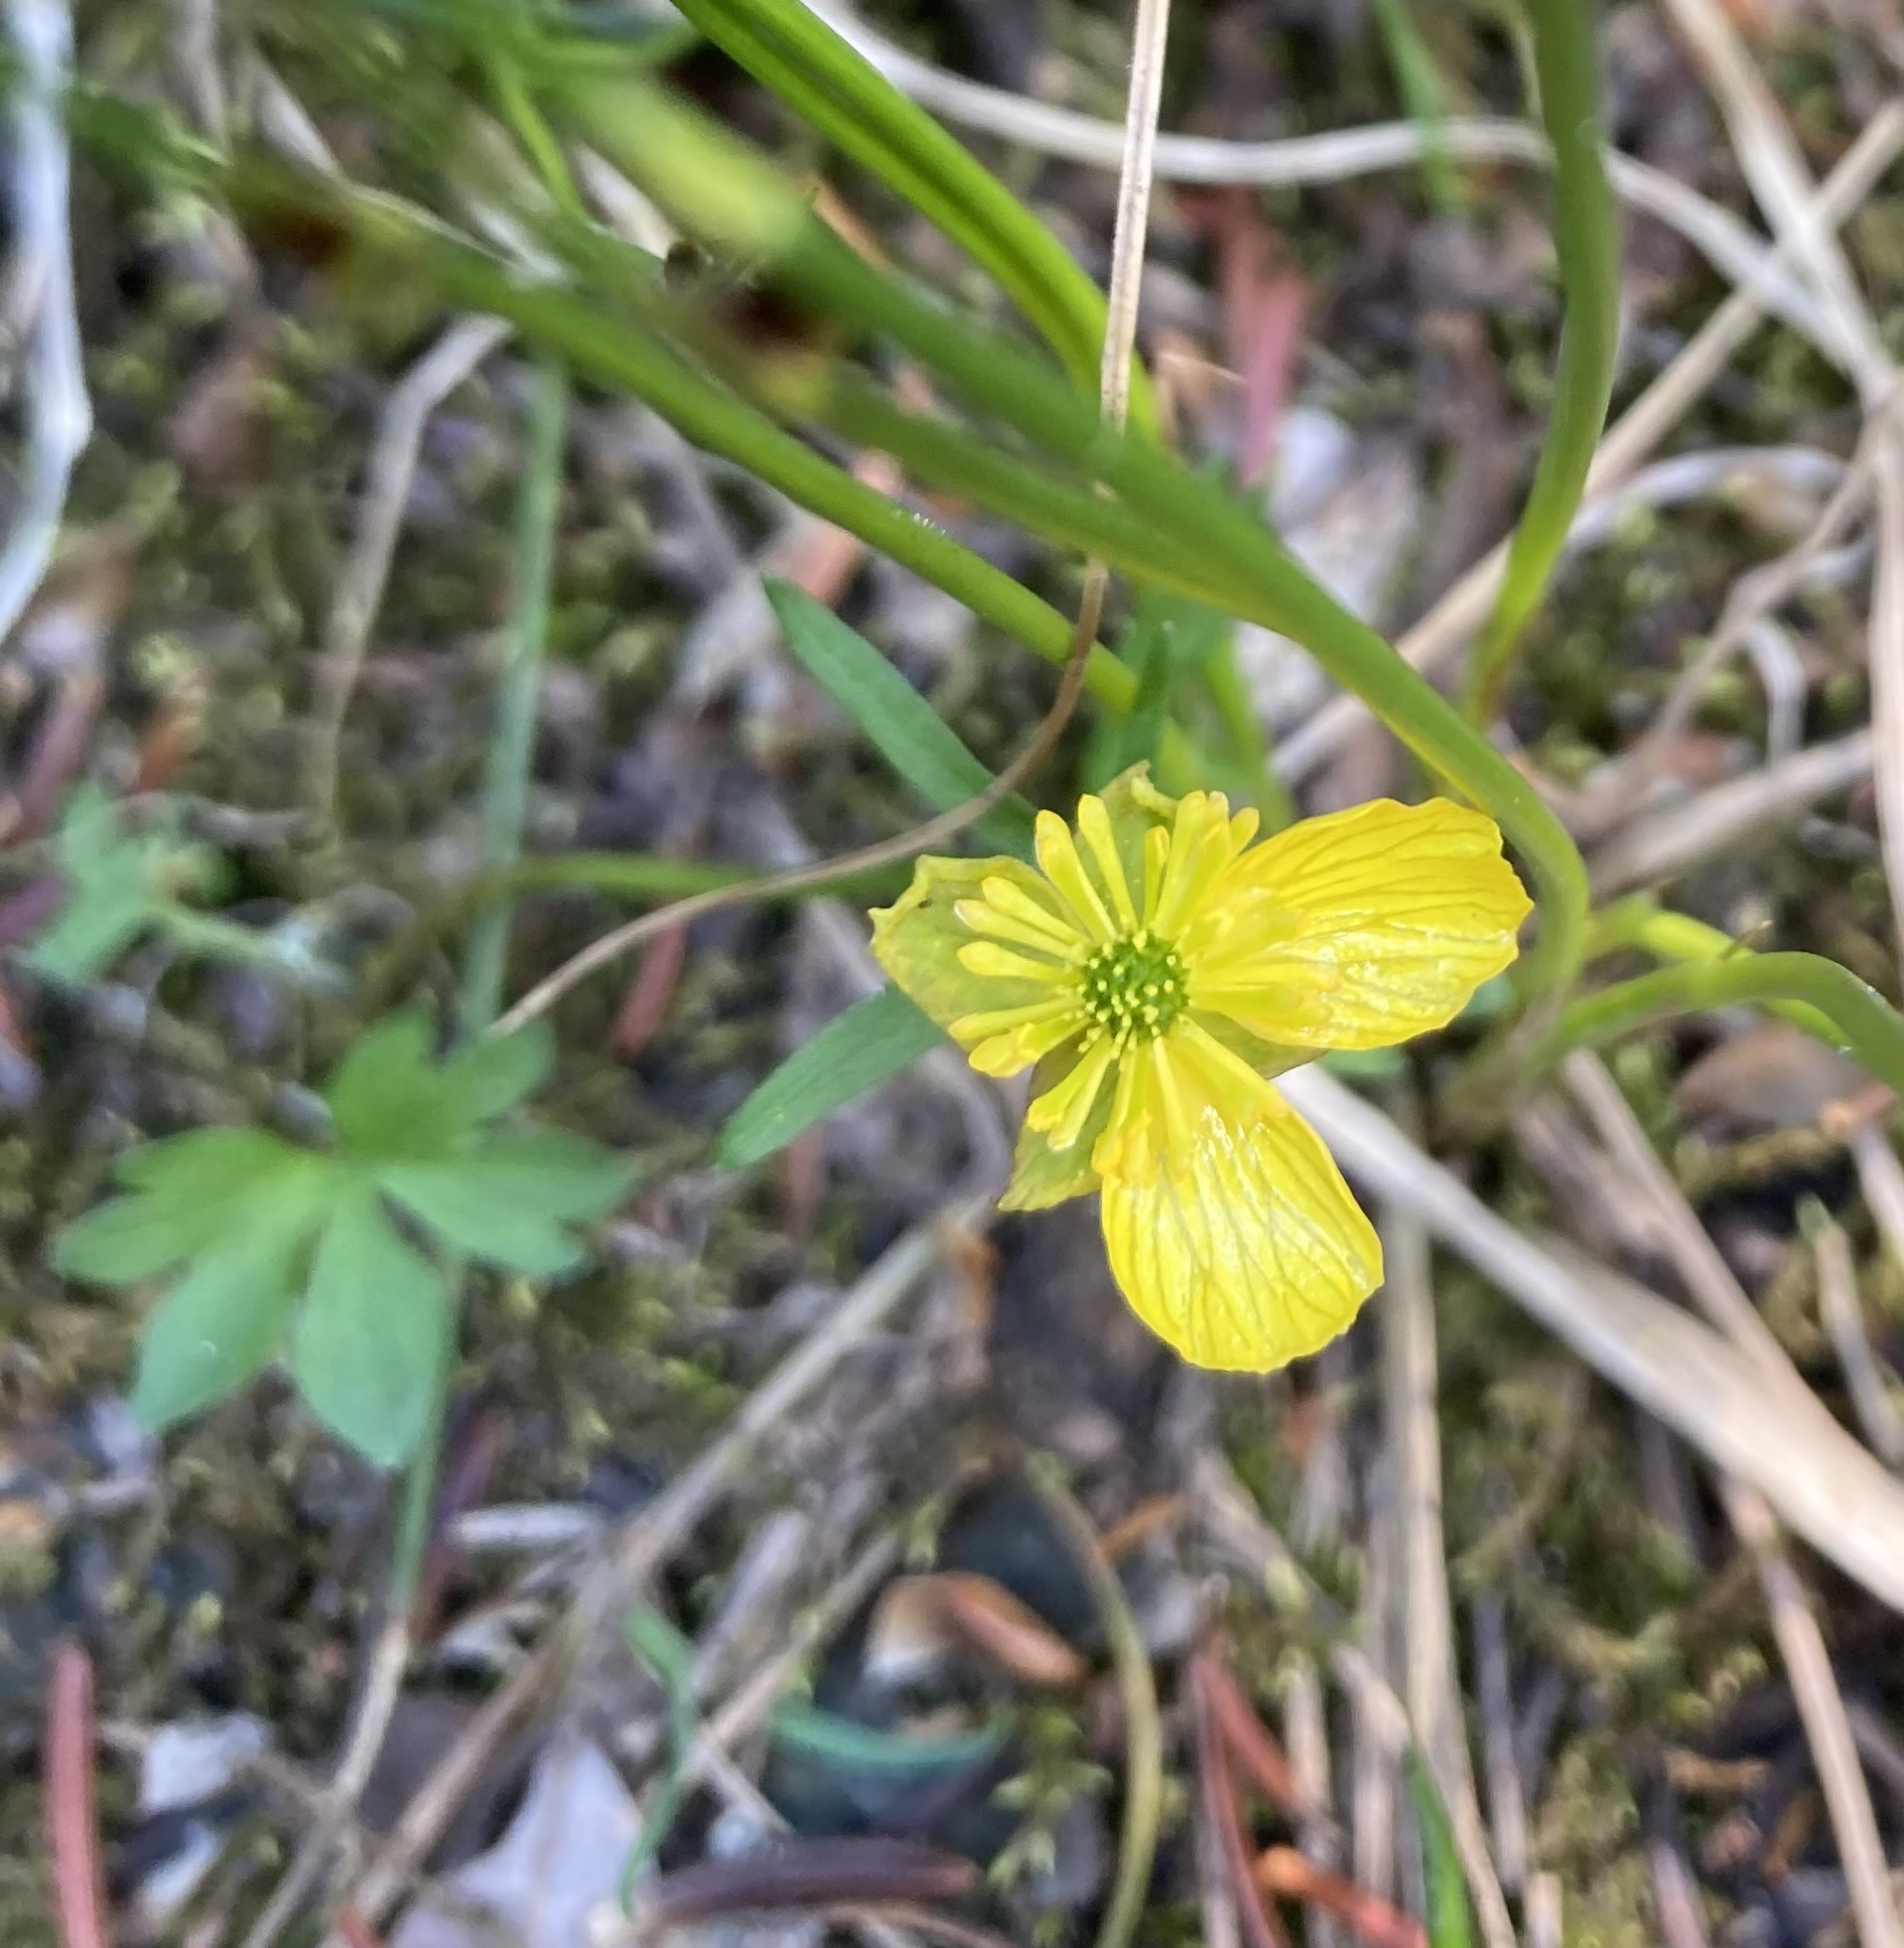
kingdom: Plantae
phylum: Tracheophyta
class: Magnoliopsida
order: Ranunculales
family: Ranunculaceae
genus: Ranunculus
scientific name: Ranunculus eschscholtzii
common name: Eschscholtz's buttercup
